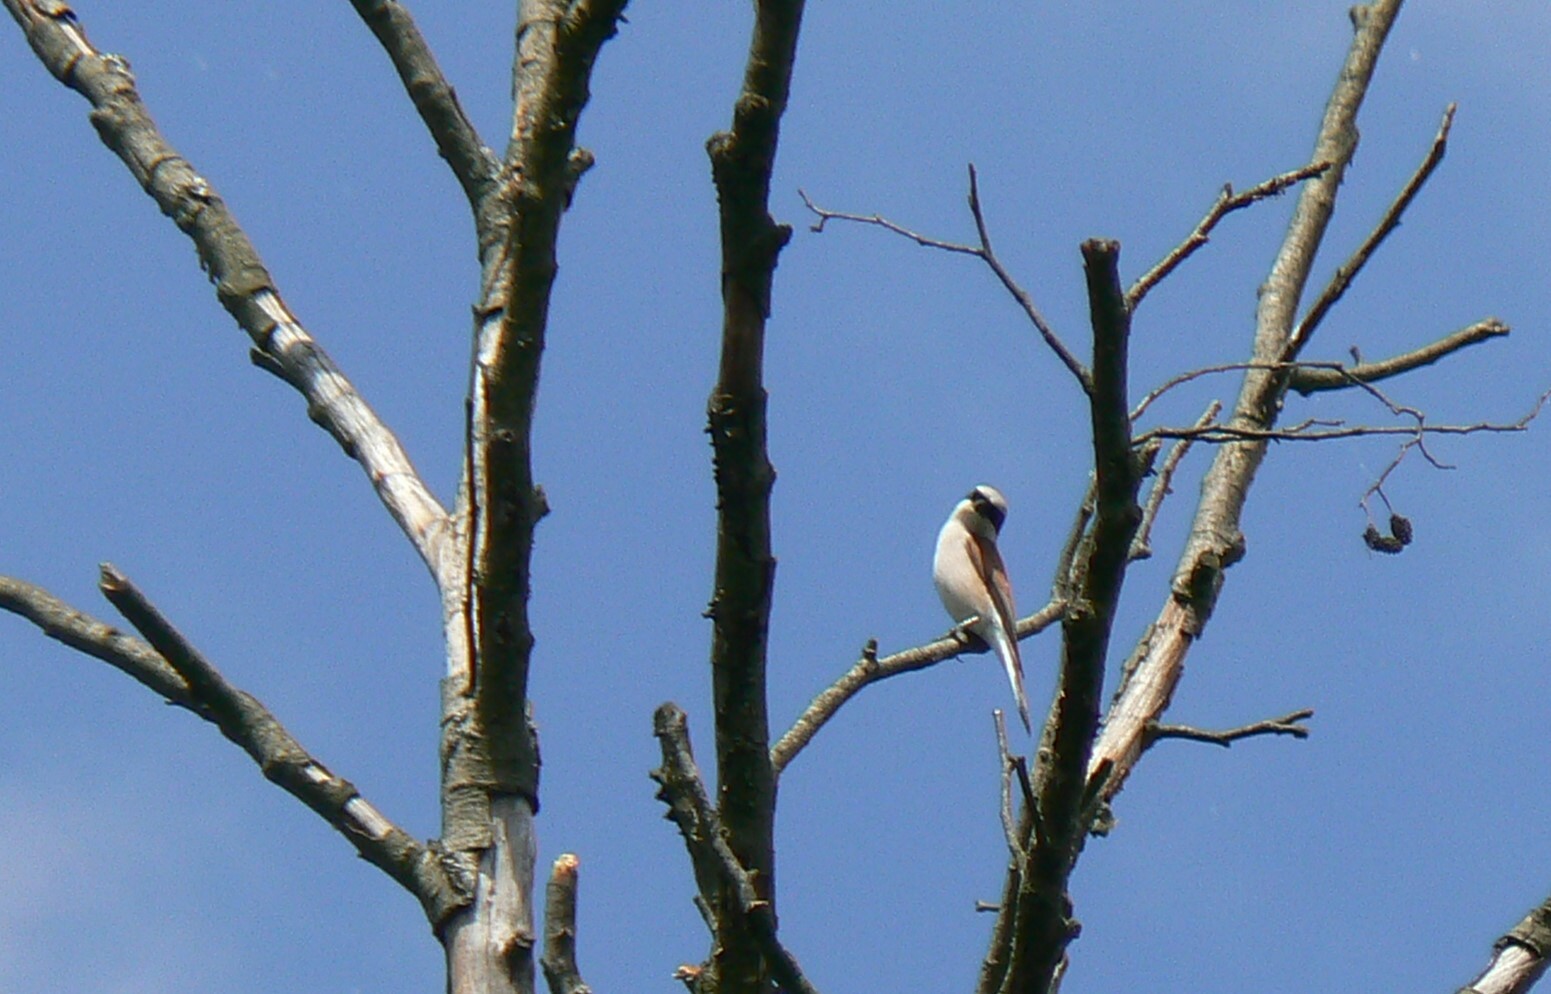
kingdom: Animalia
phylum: Chordata
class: Aves
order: Passeriformes
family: Laniidae
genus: Lanius
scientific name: Lanius collurio
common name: Red-backed shrike
